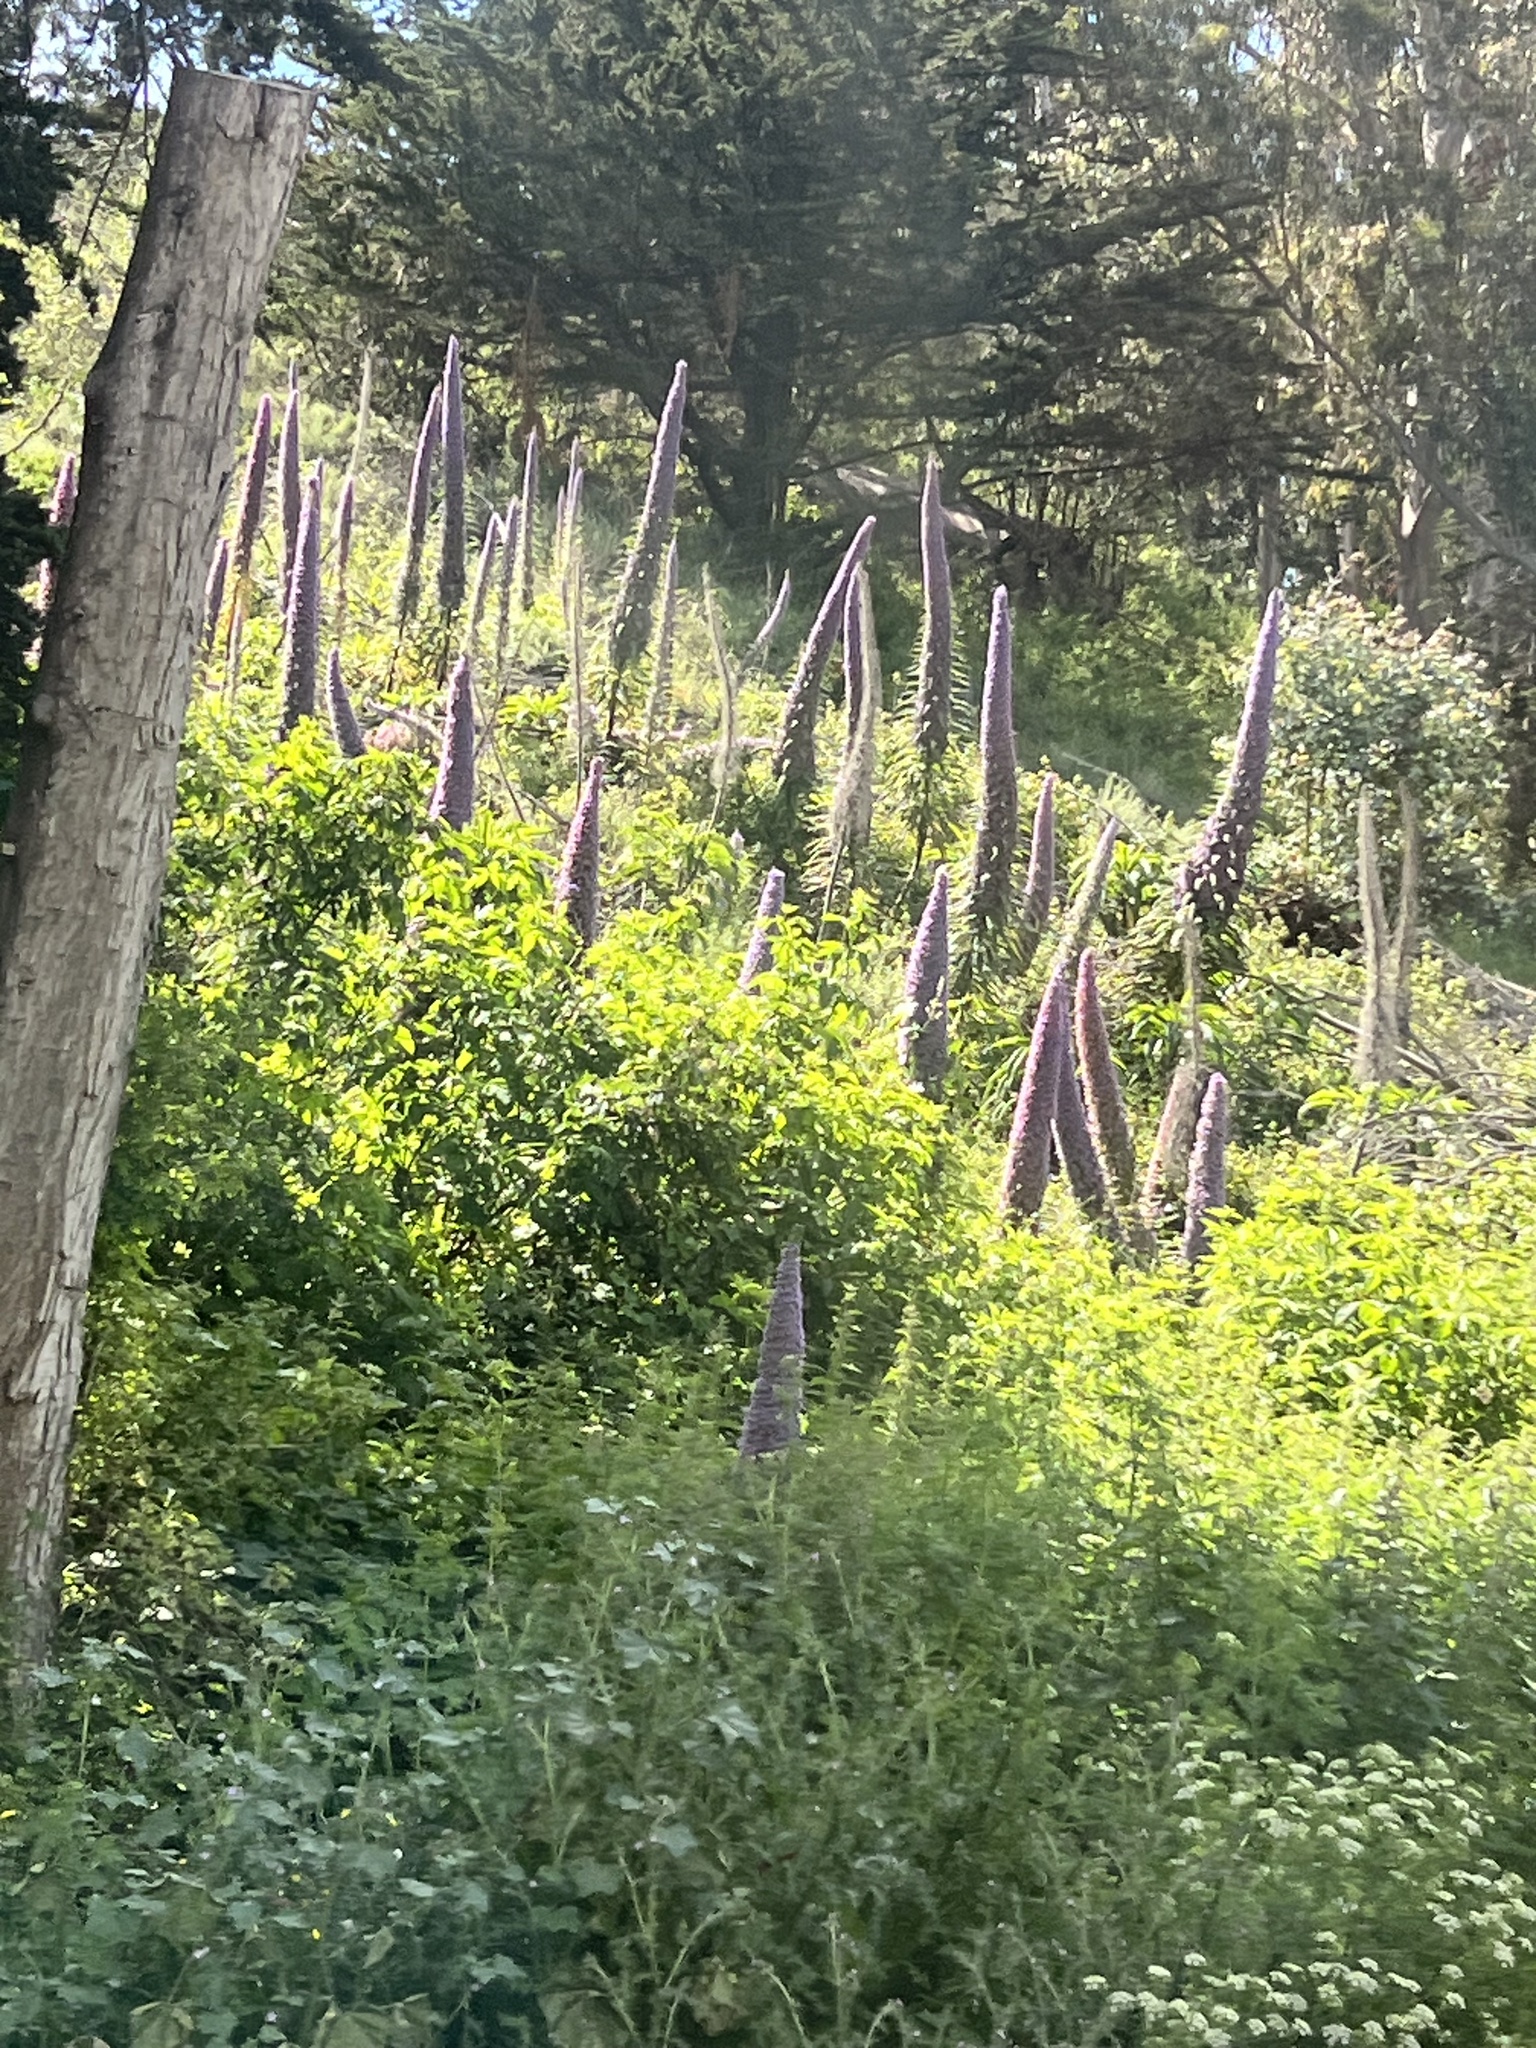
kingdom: Plantae
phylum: Tracheophyta
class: Magnoliopsida
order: Boraginales
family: Boraginaceae
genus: Echium
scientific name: Echium pininana
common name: Giant viper's-bugloss
